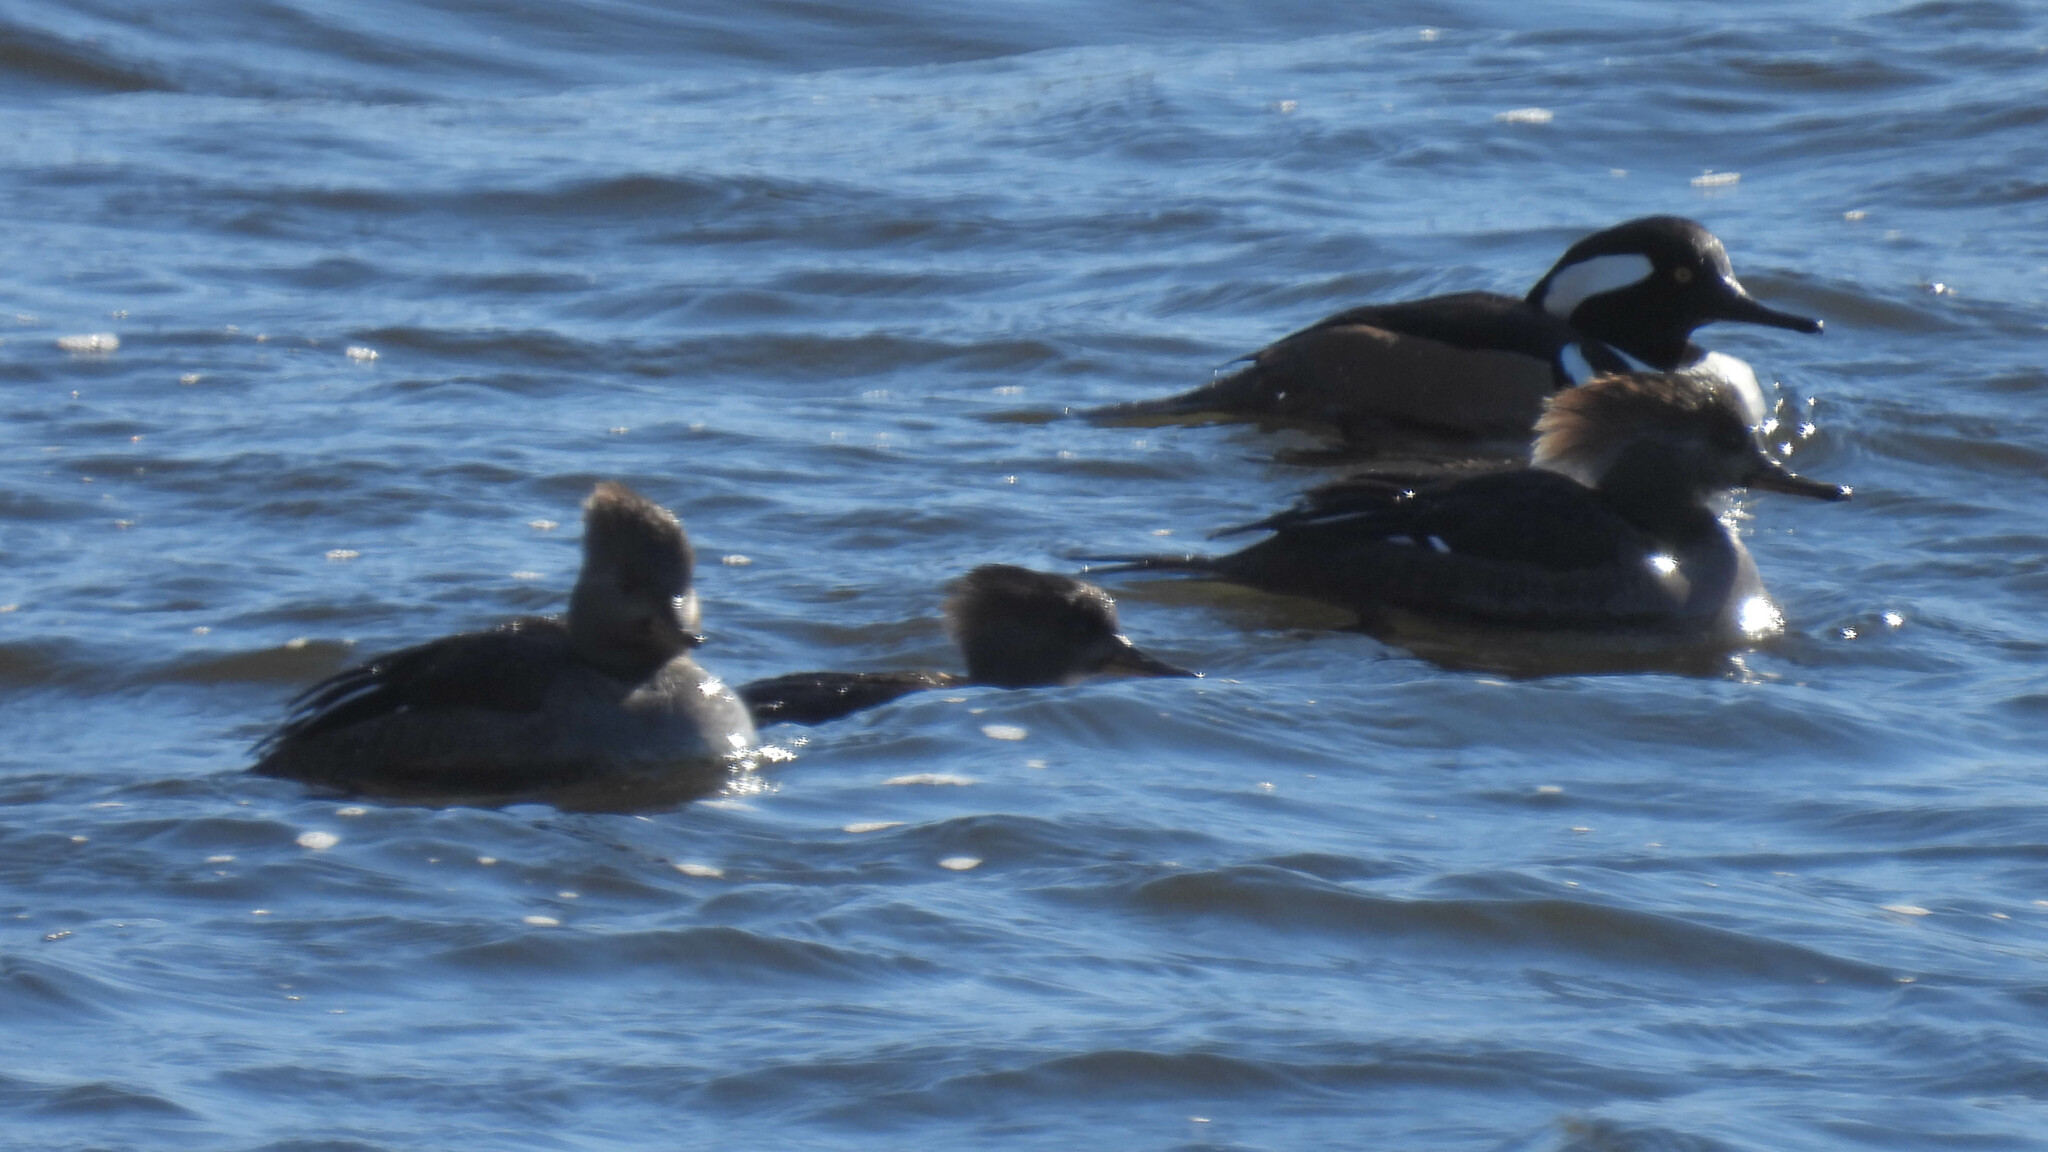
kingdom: Animalia
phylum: Chordata
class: Aves
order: Anseriformes
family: Anatidae
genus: Lophodytes
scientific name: Lophodytes cucullatus
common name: Hooded merganser
